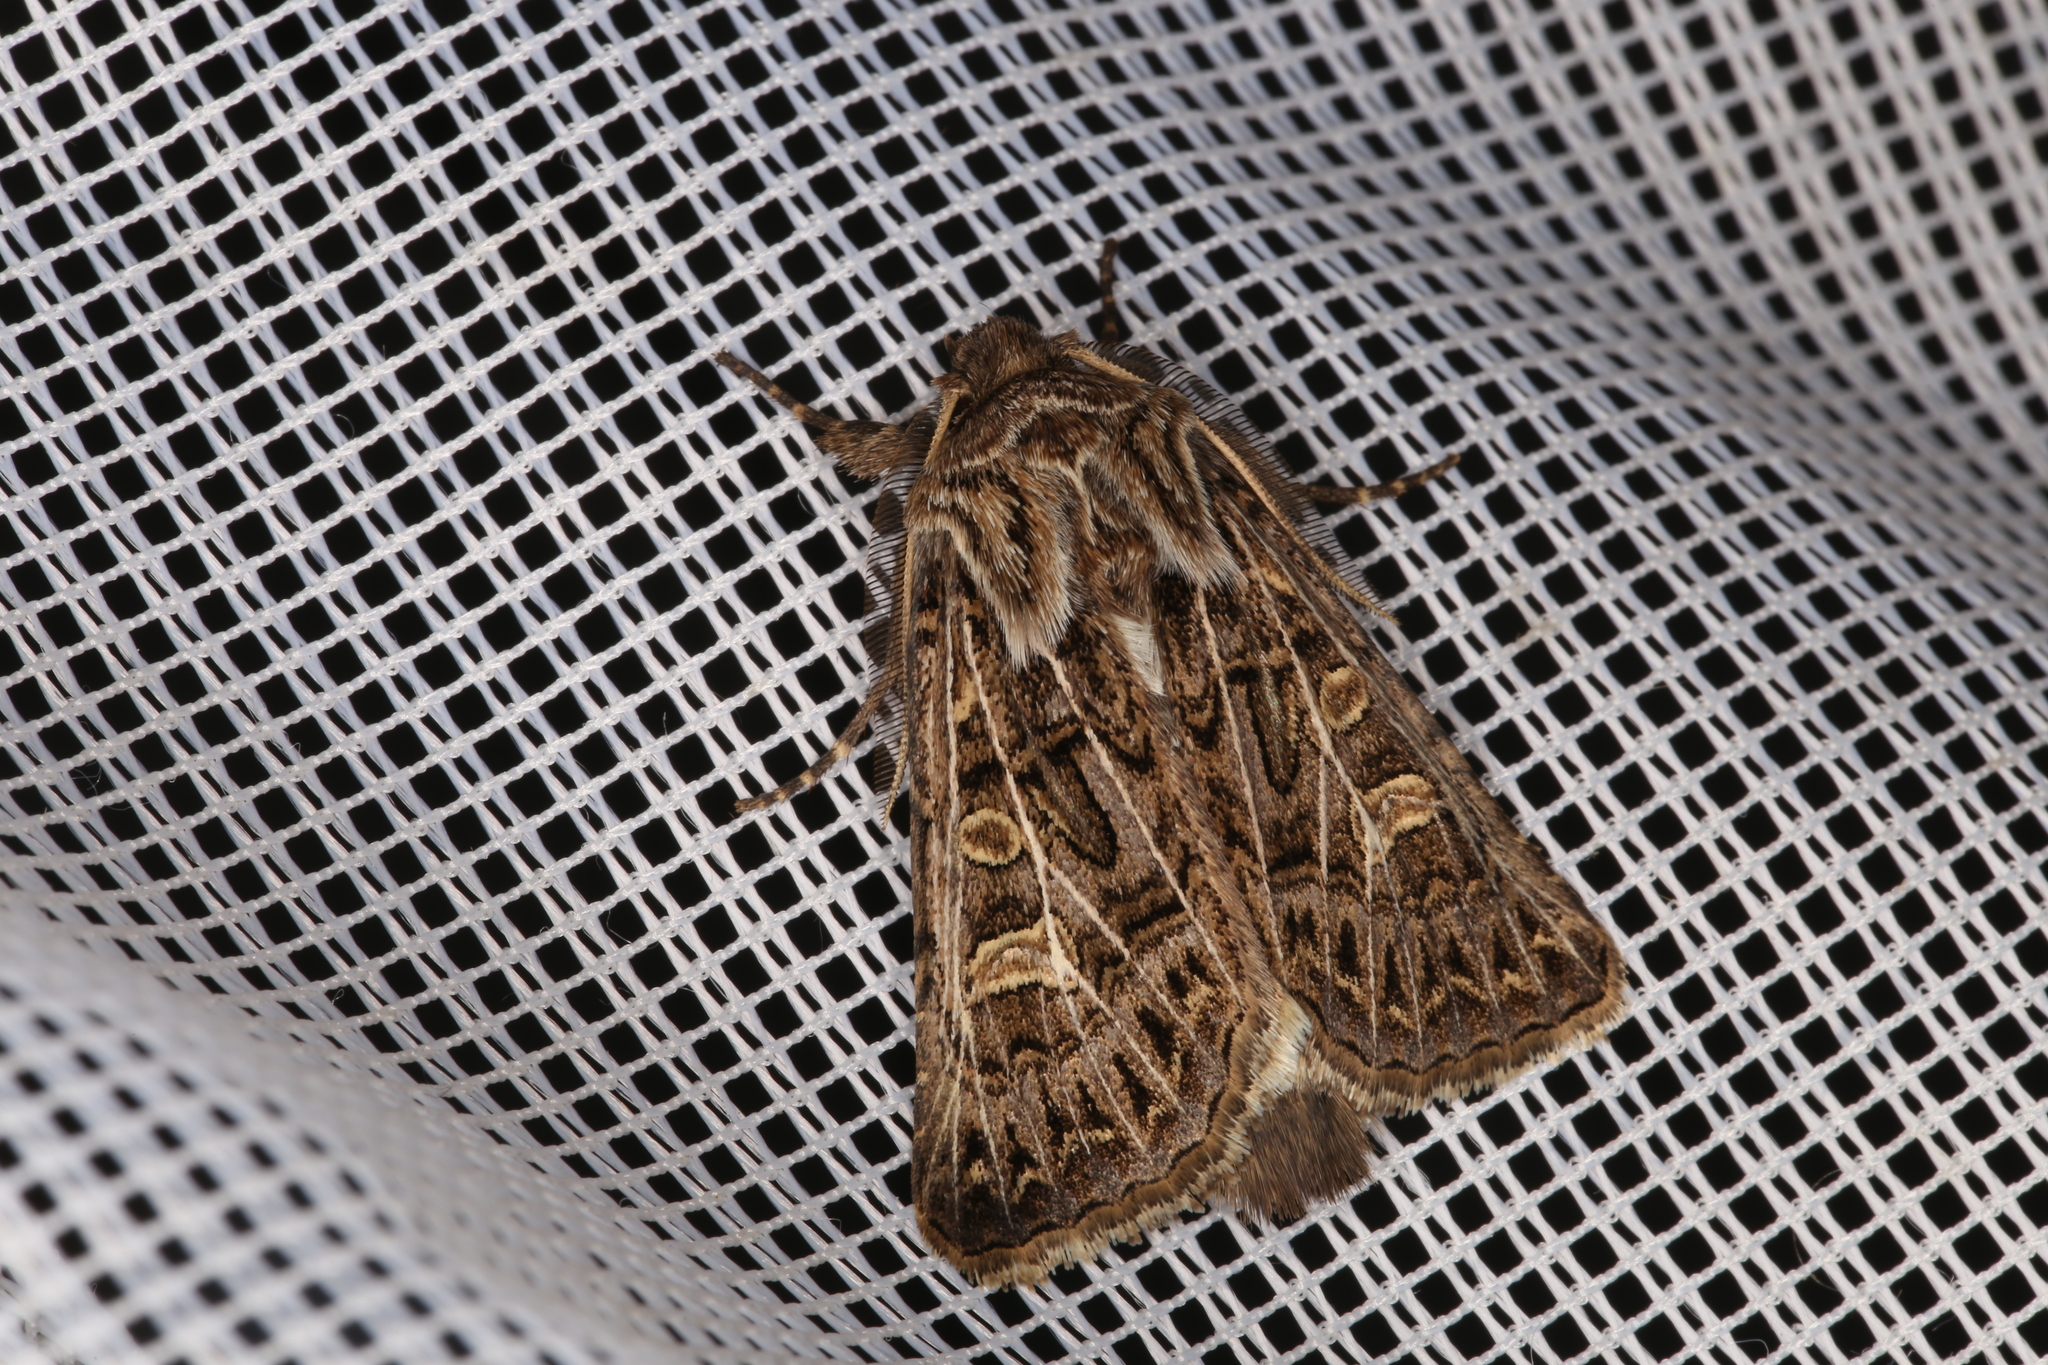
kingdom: Animalia
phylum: Arthropoda
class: Insecta
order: Lepidoptera
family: Noctuidae
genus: Tholera
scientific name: Tholera decimalis
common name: Feathered gothic
